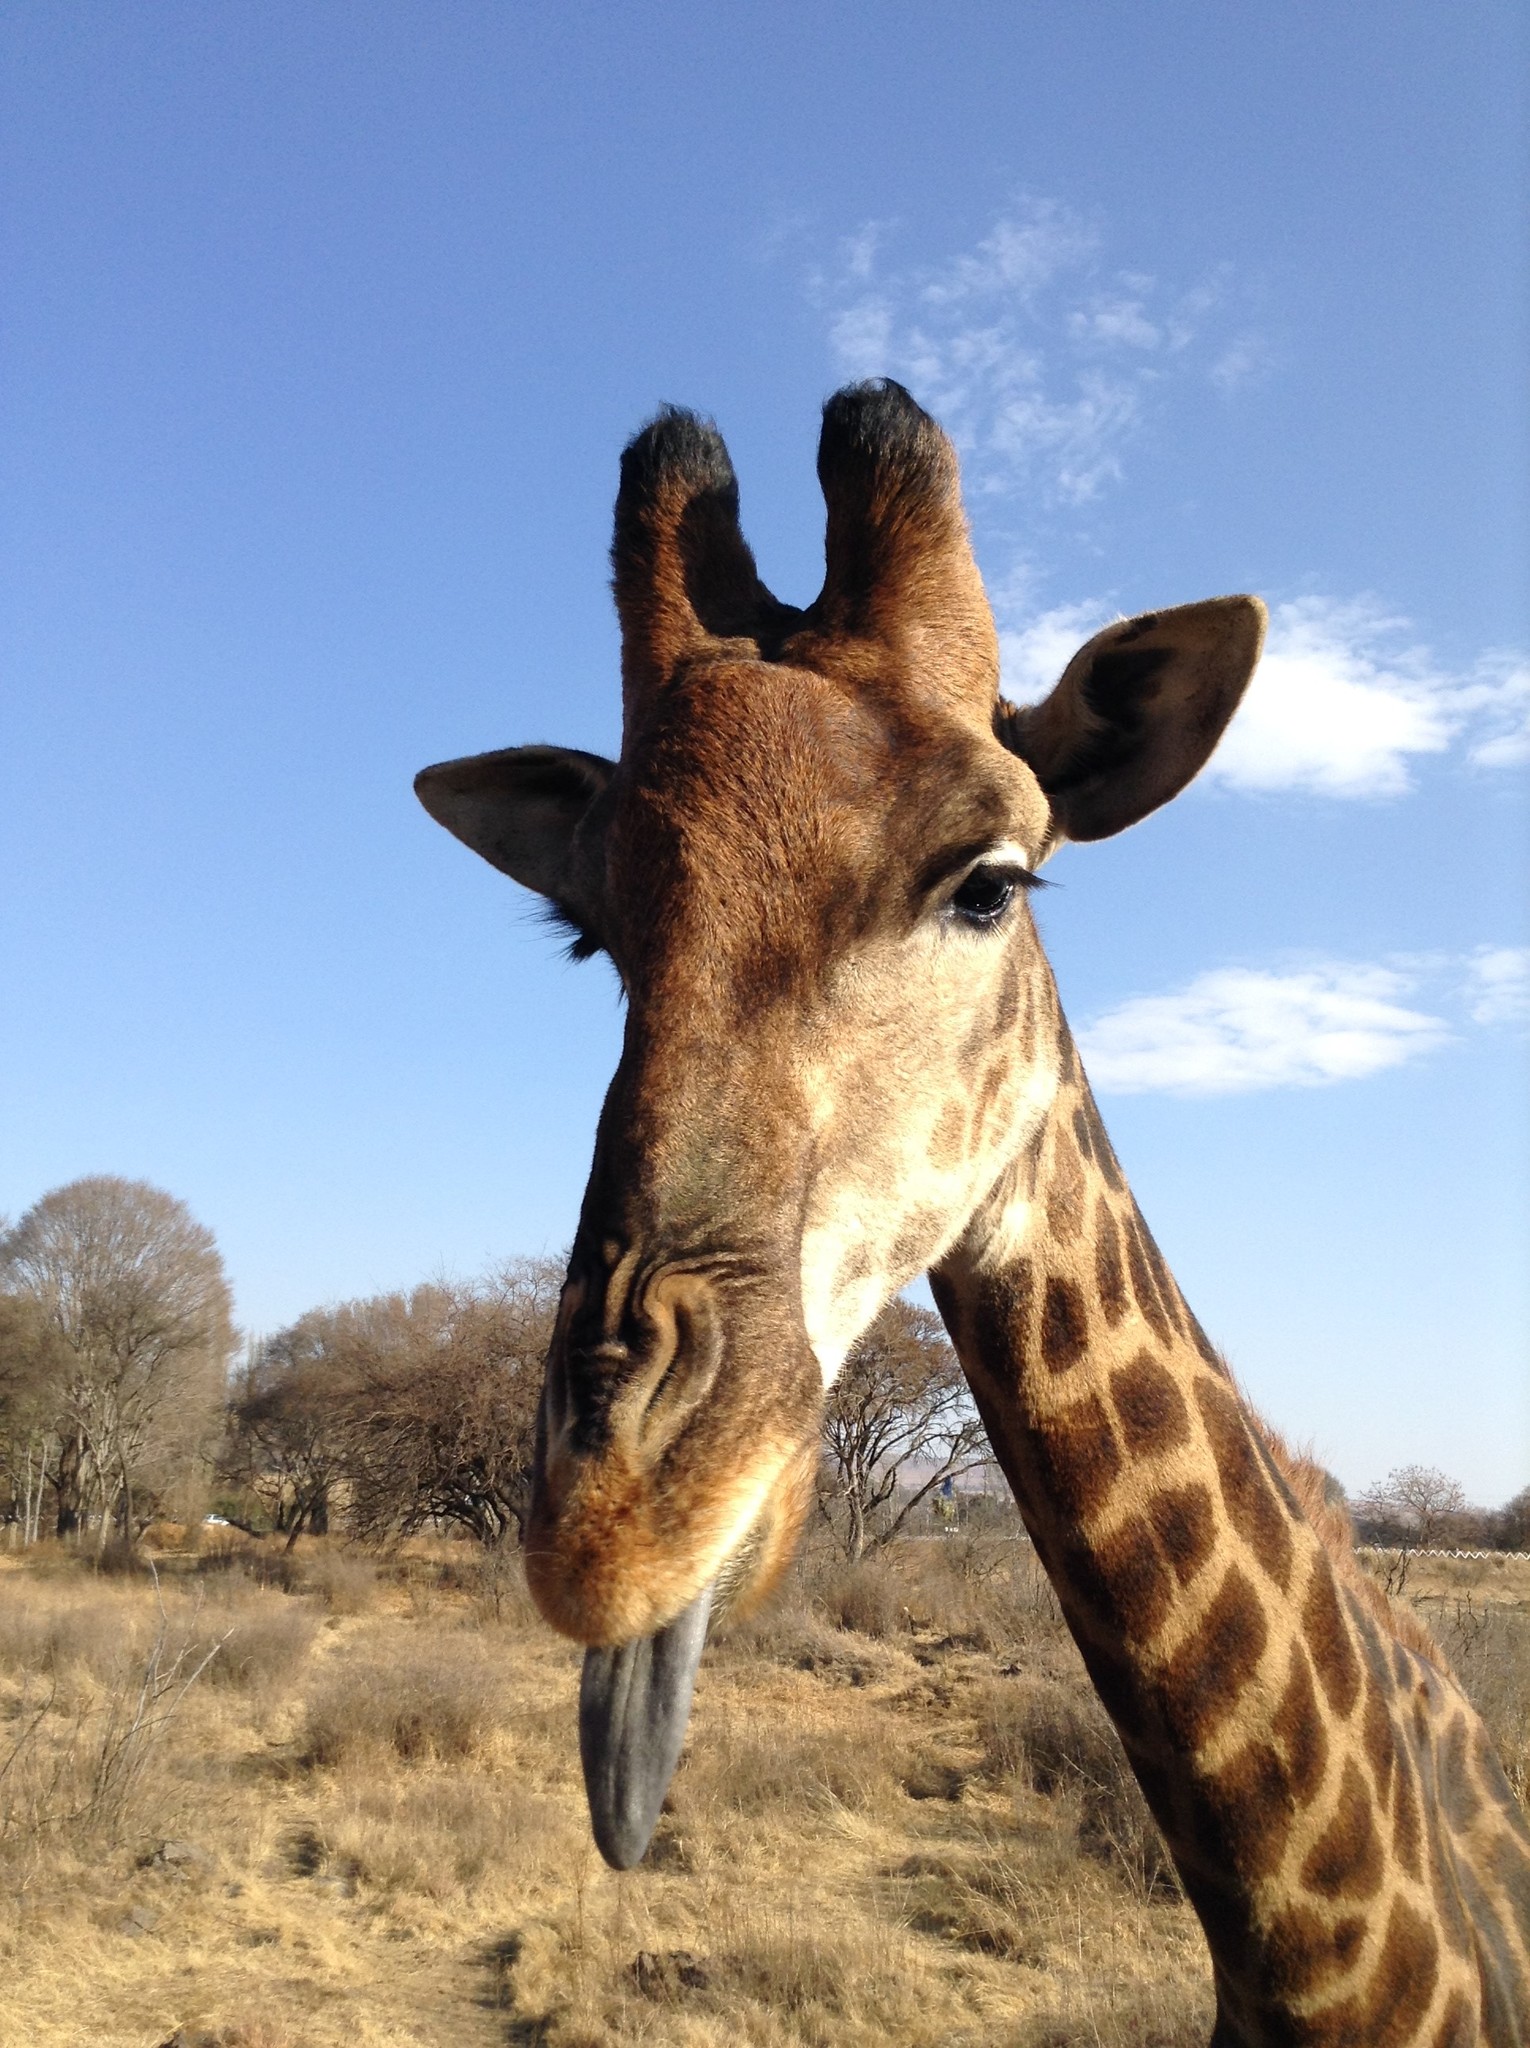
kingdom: Animalia
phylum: Chordata
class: Mammalia
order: Artiodactyla
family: Giraffidae
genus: Giraffa
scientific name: Giraffa giraffa
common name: Southern giraffe
